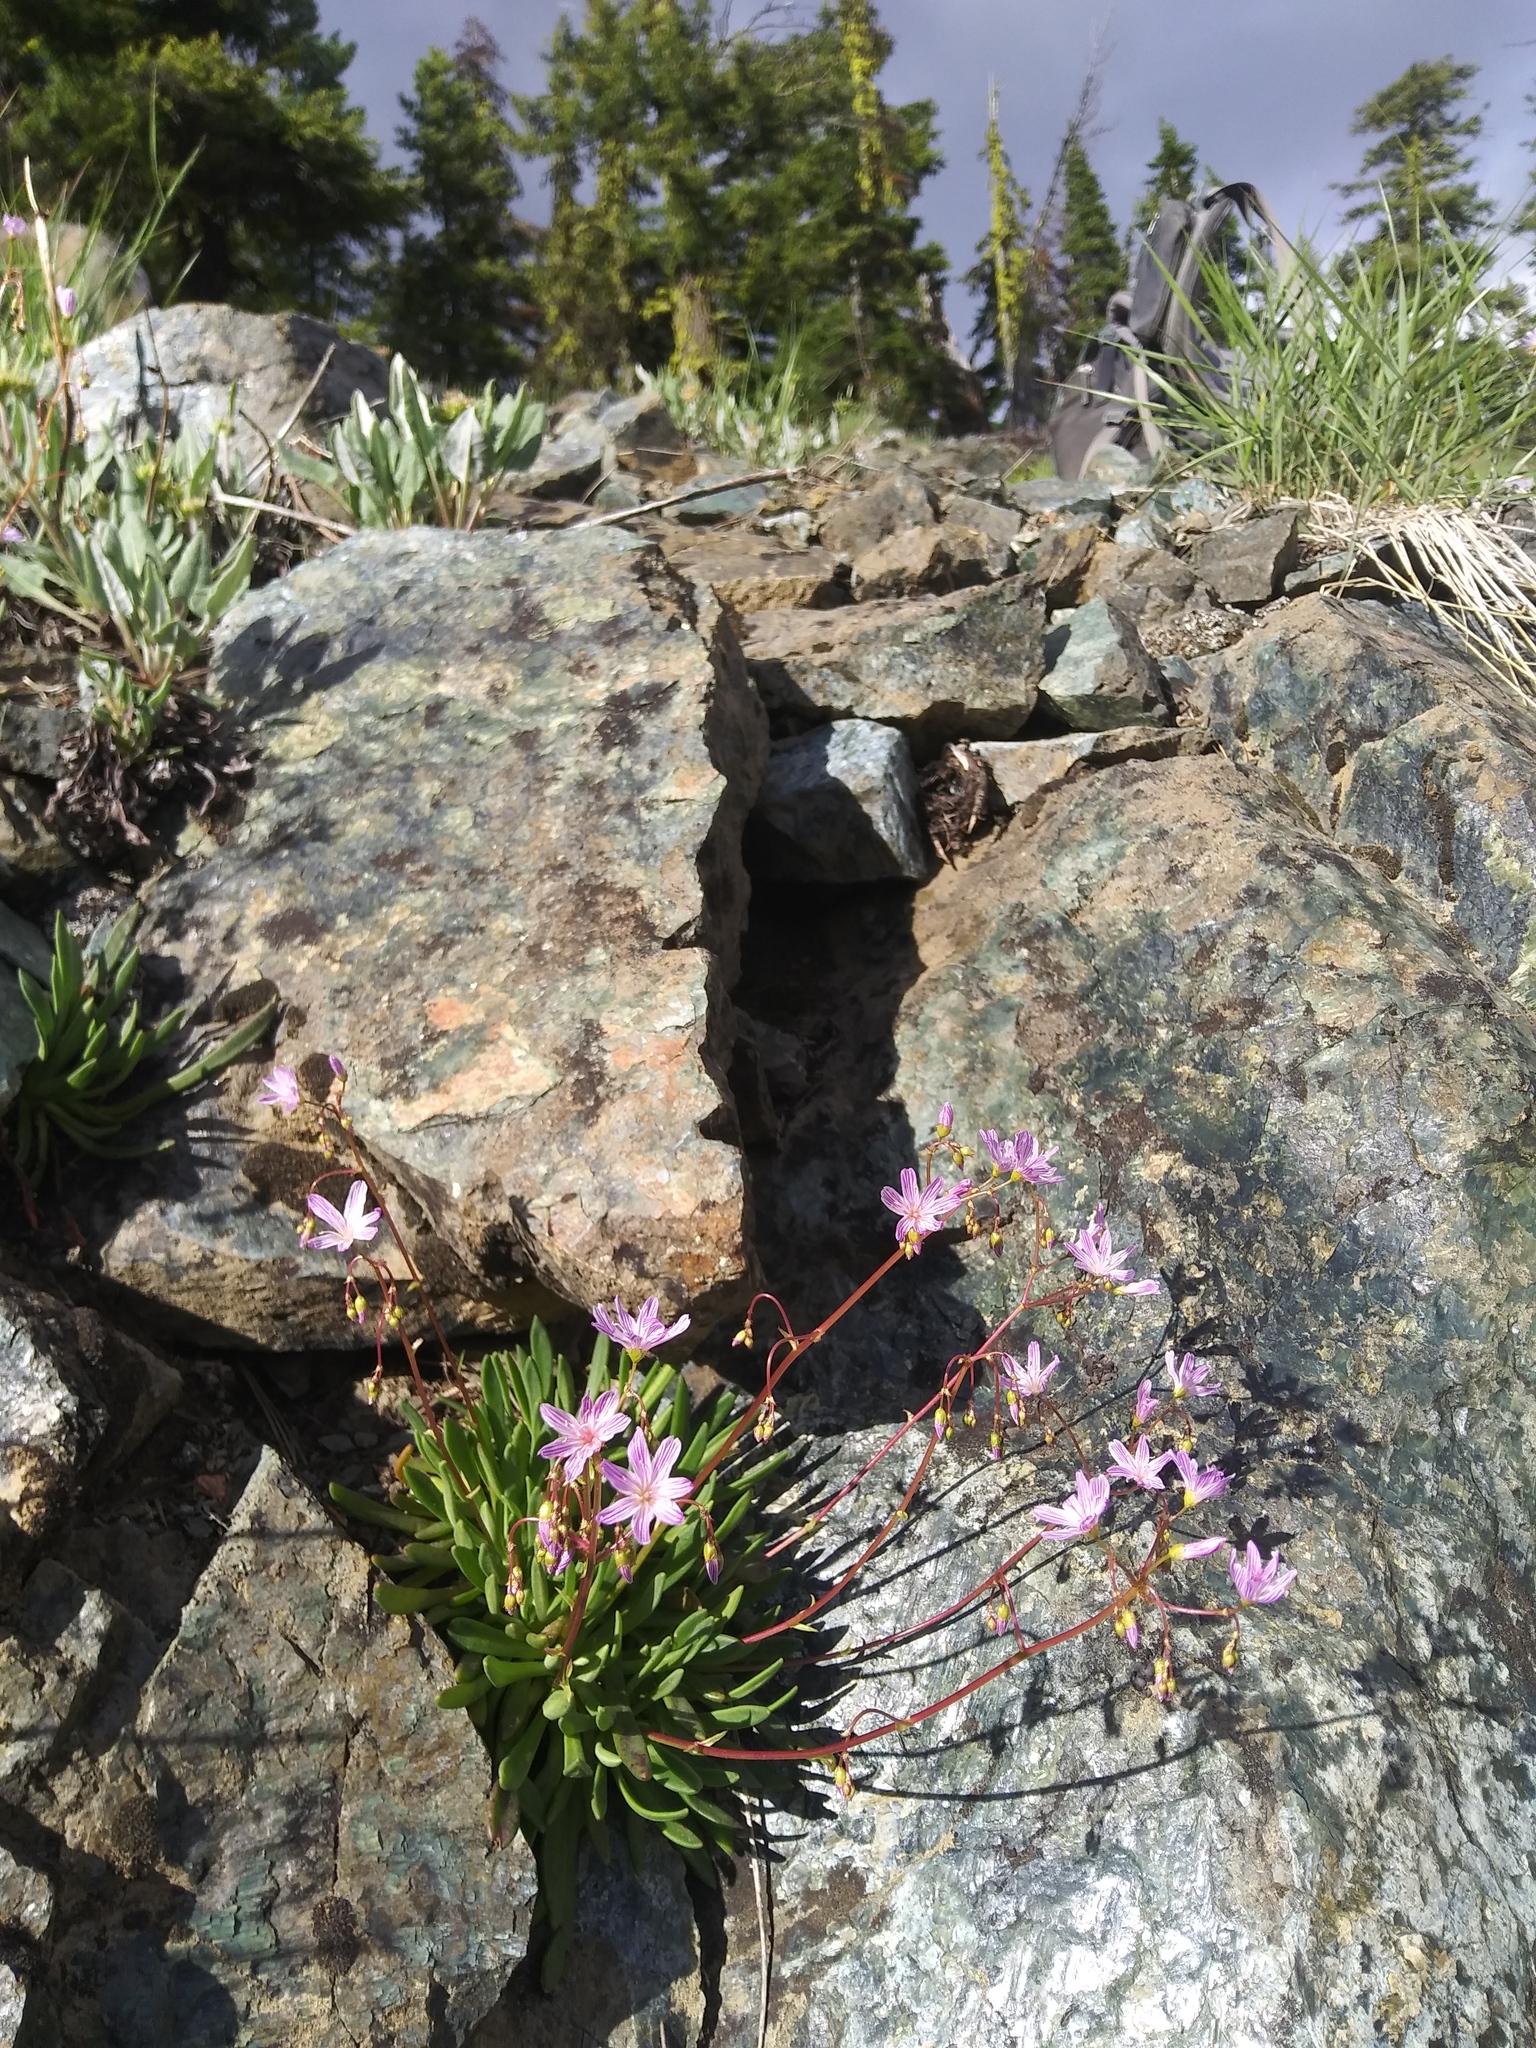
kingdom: Plantae
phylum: Tracheophyta
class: Magnoliopsida
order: Caryophyllales
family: Montiaceae
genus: Lewisia
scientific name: Lewisia columbiana
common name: Columbia lewisia
